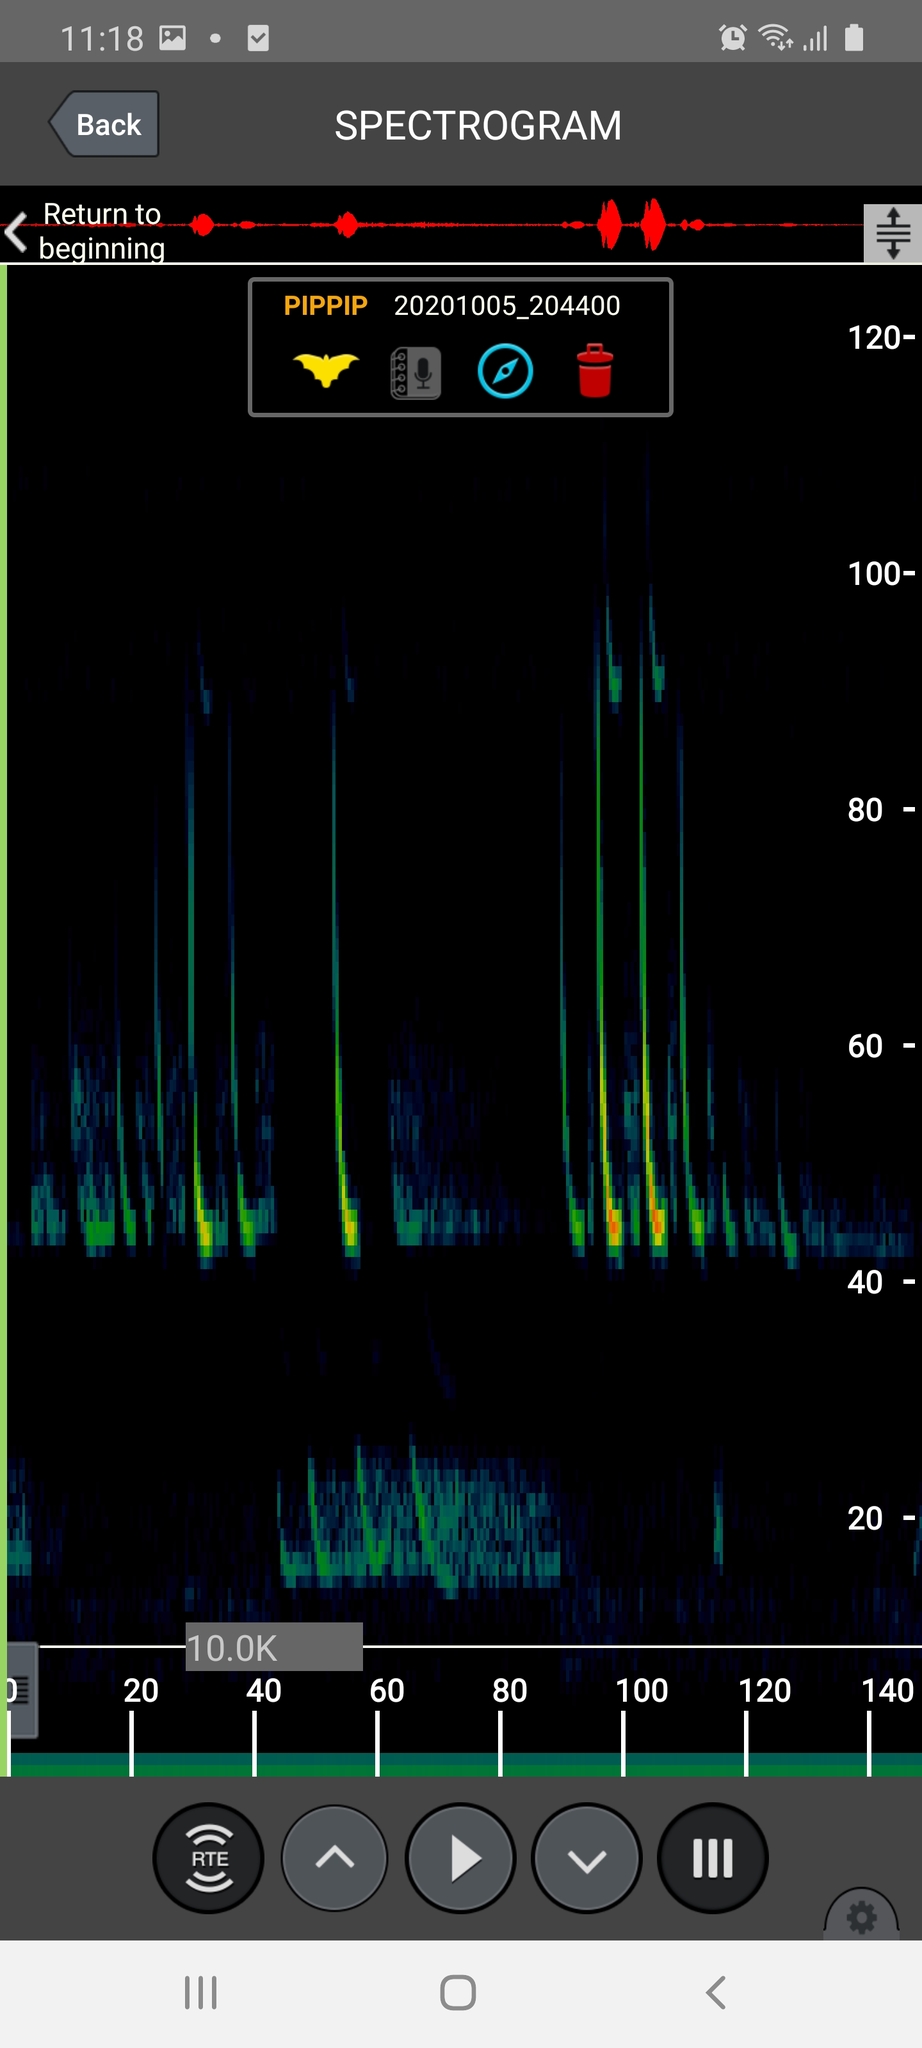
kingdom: Animalia
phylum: Chordata
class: Mammalia
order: Chiroptera
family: Vespertilionidae
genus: Pipistrellus
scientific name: Pipistrellus pipistrellus
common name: Common pipistrelle
